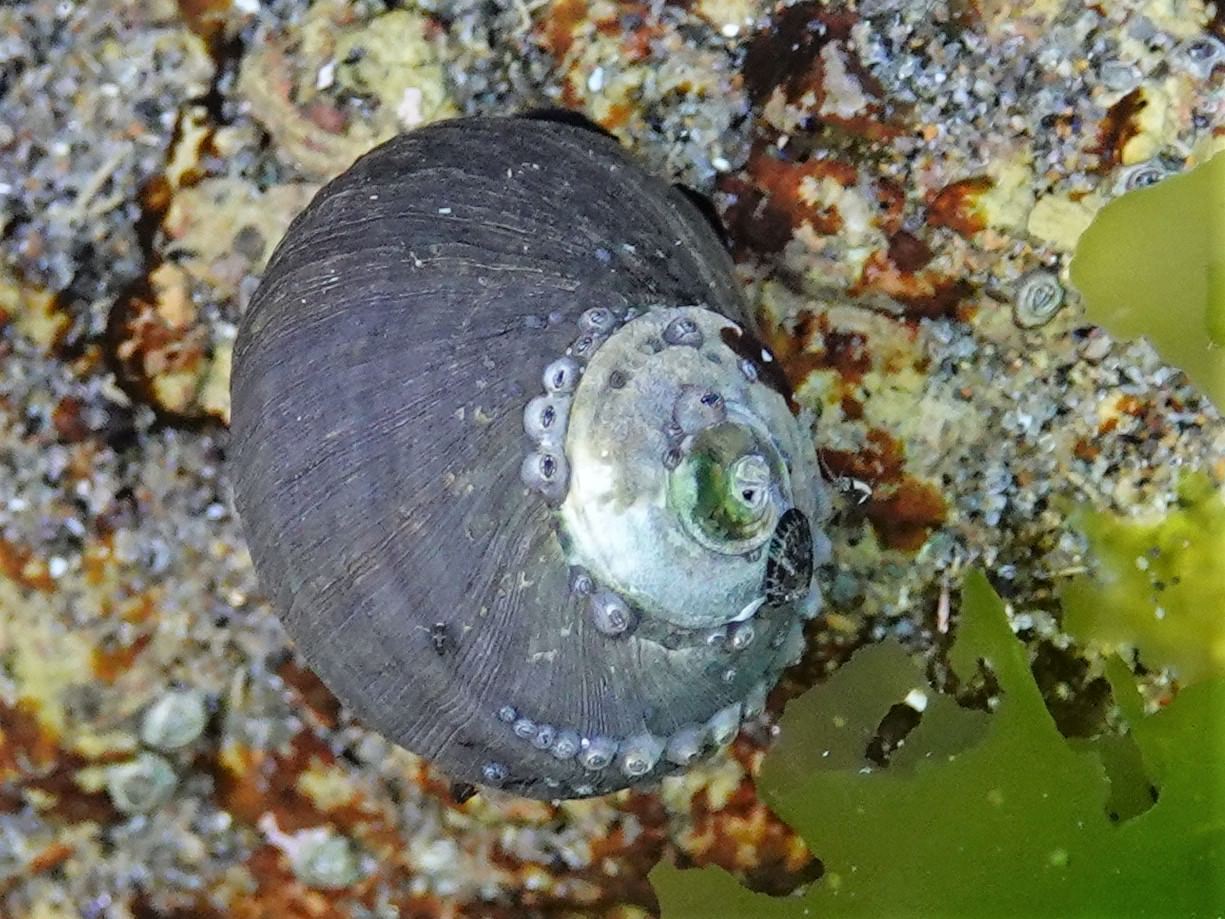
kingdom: Animalia
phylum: Mollusca
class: Gastropoda
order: Trochida
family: Turbinidae
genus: Lunella
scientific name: Lunella smaragda
